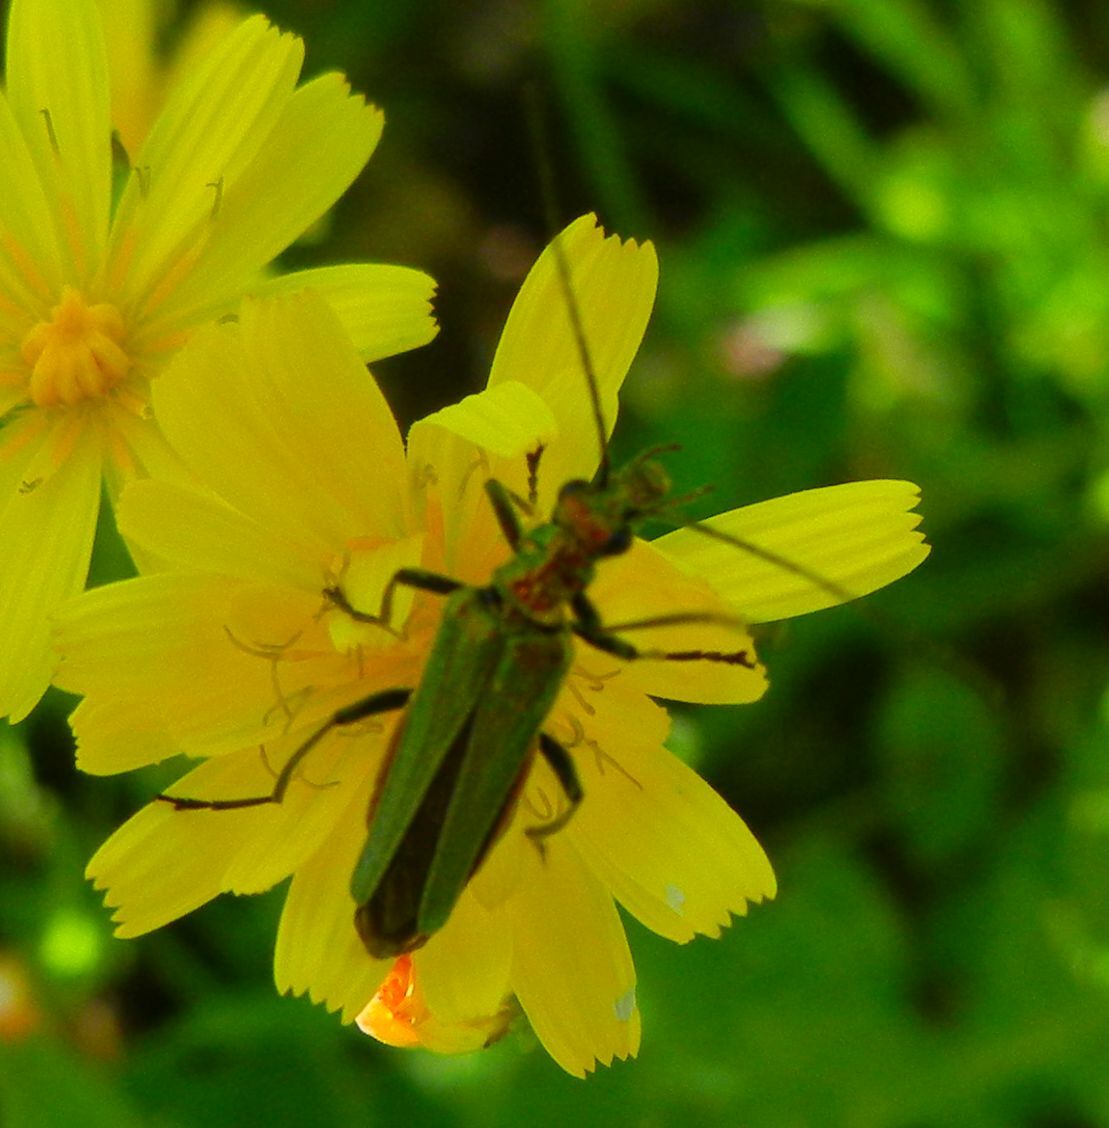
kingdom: Animalia
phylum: Arthropoda
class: Insecta
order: Coleoptera
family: Oedemeridae
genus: Oedemera
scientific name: Oedemera nobilis
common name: Swollen-thighed beetle
